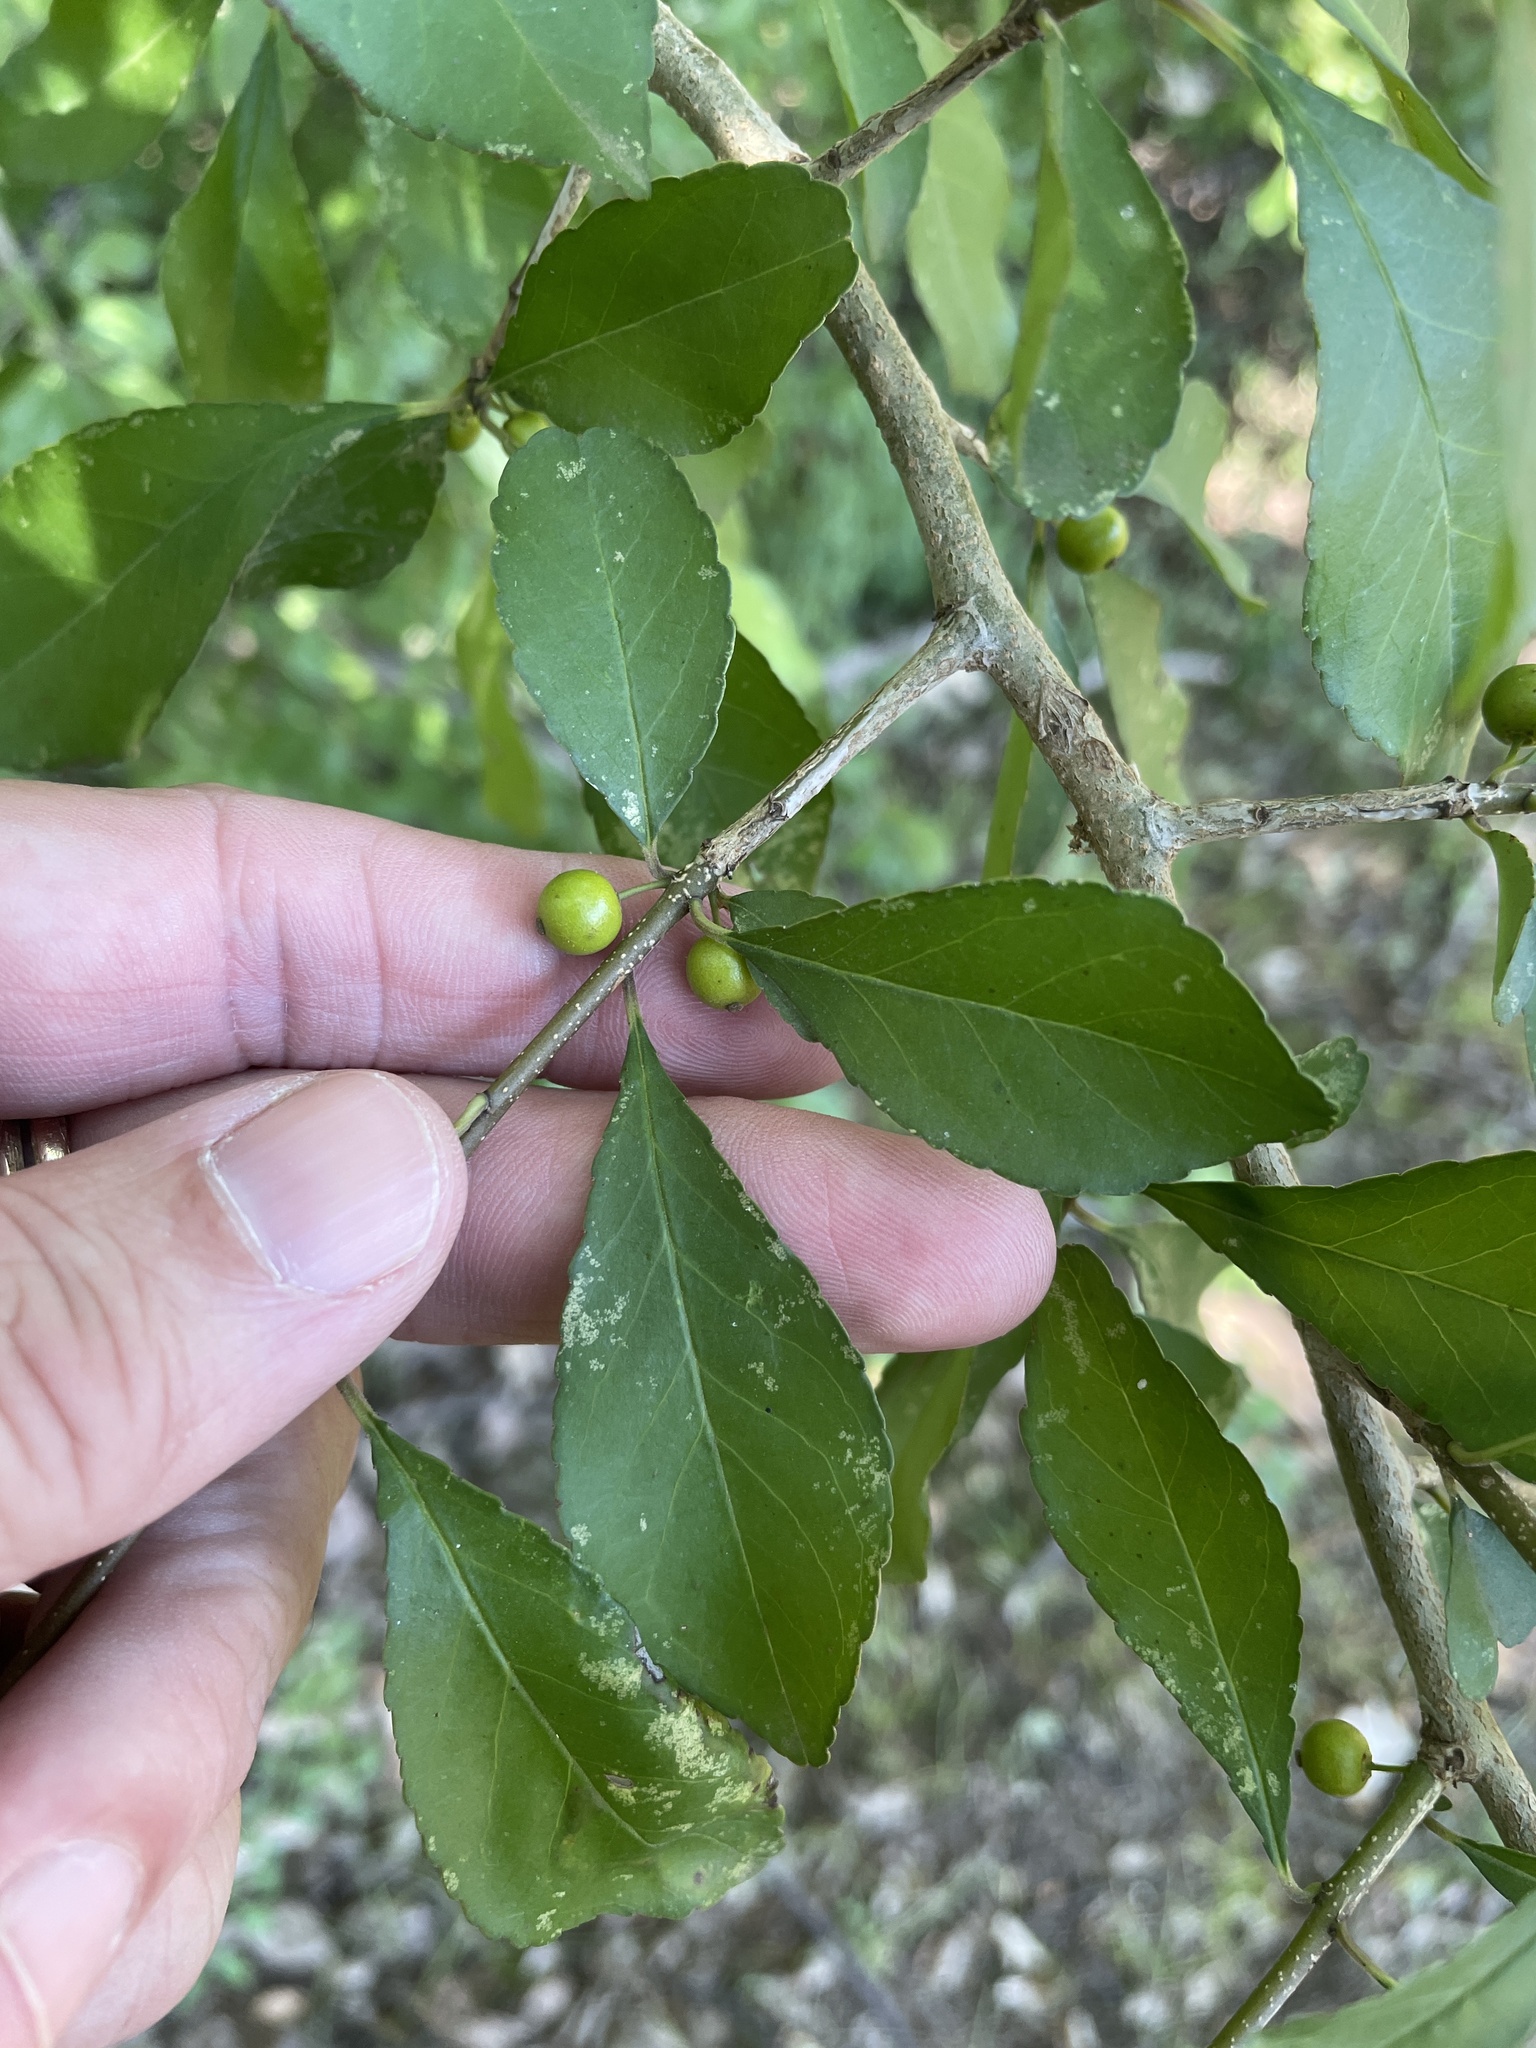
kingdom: Plantae
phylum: Tracheophyta
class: Magnoliopsida
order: Aquifoliales
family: Aquifoliaceae
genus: Ilex
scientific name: Ilex decidua
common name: Possum-haw
